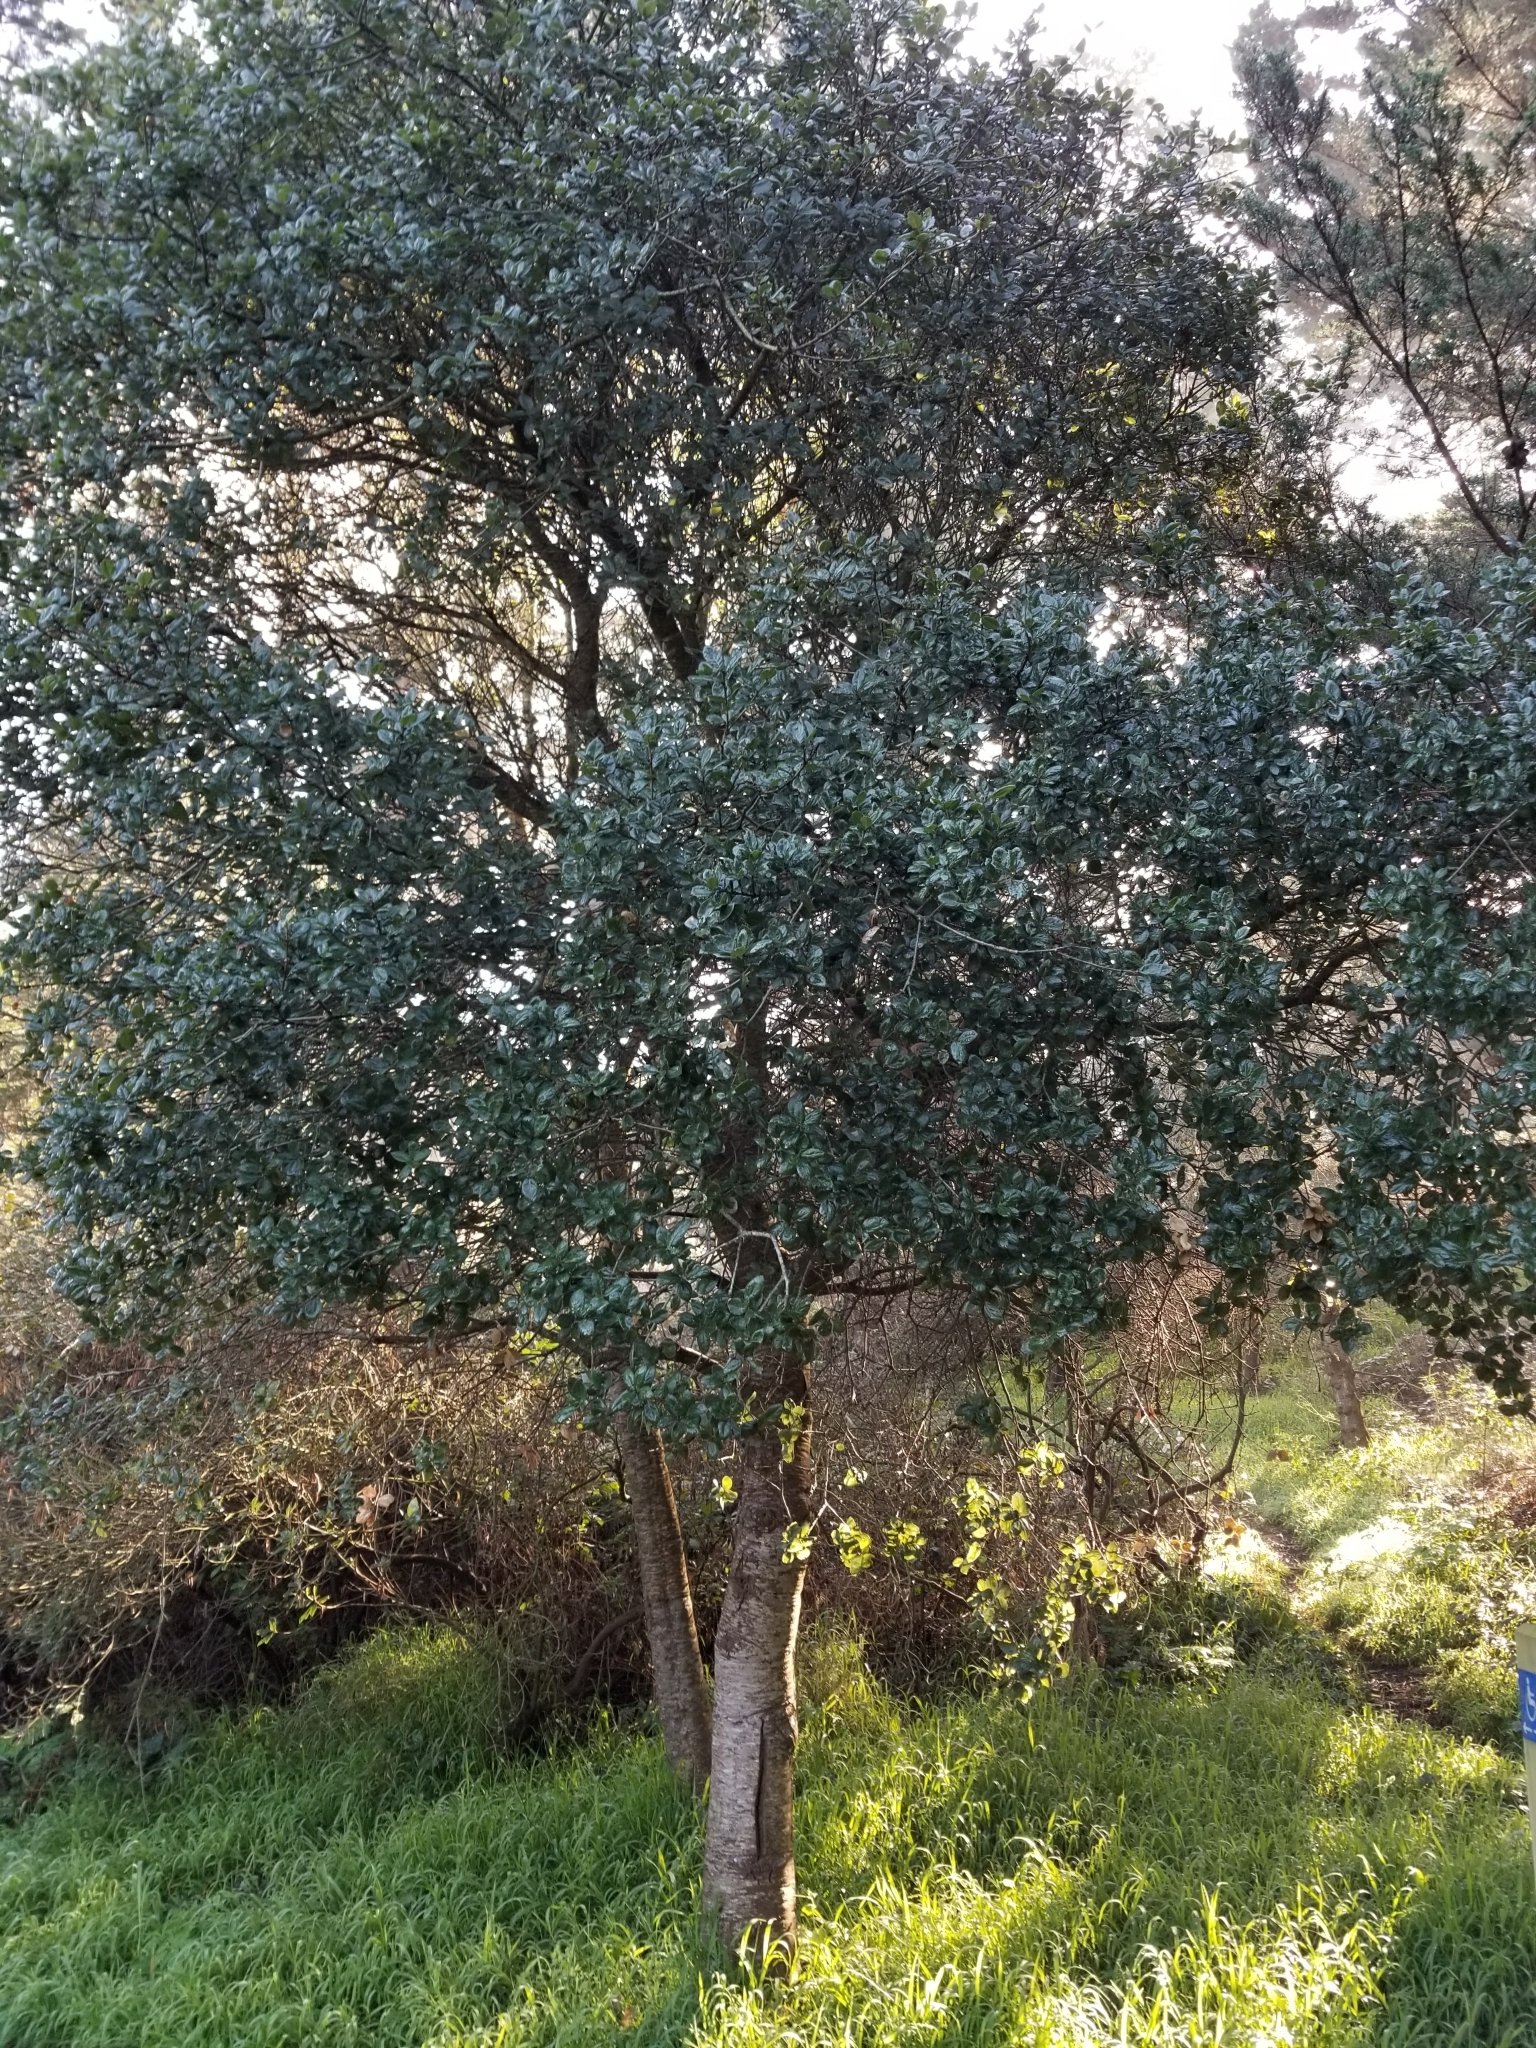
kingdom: Plantae
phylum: Tracheophyta
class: Magnoliopsida
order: Fagales
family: Fagaceae
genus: Quercus
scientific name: Quercus agrifolia
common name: California live oak
